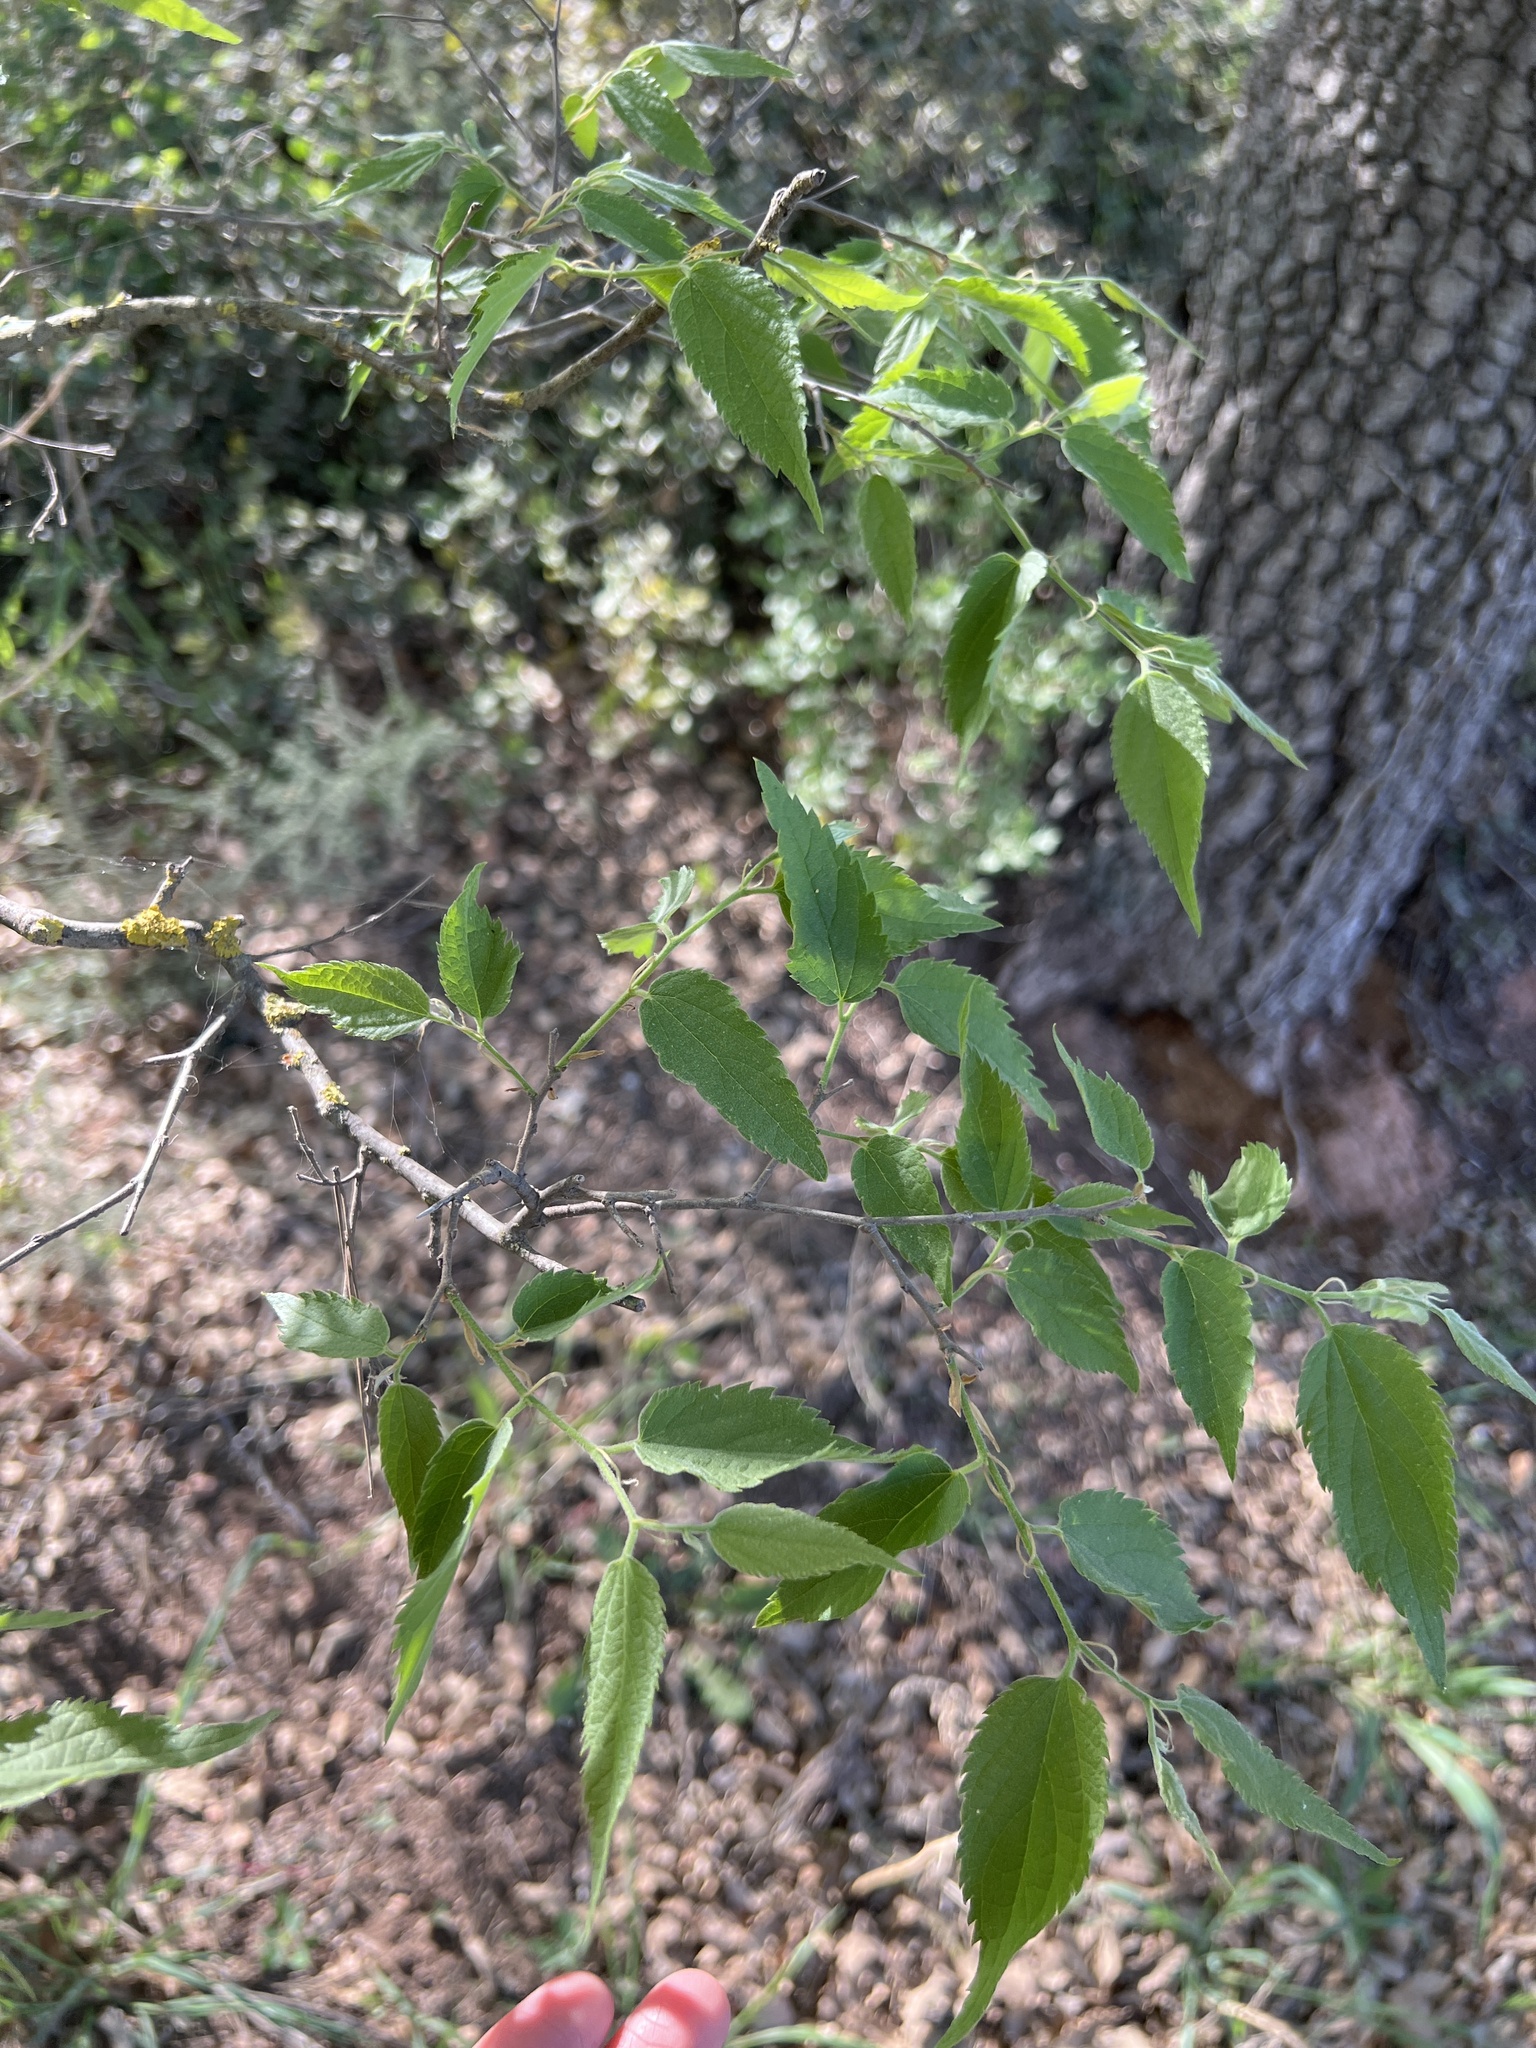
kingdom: Plantae
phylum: Tracheophyta
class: Magnoliopsida
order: Rosales
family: Cannabaceae
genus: Celtis
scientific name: Celtis australis
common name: European hackberry
